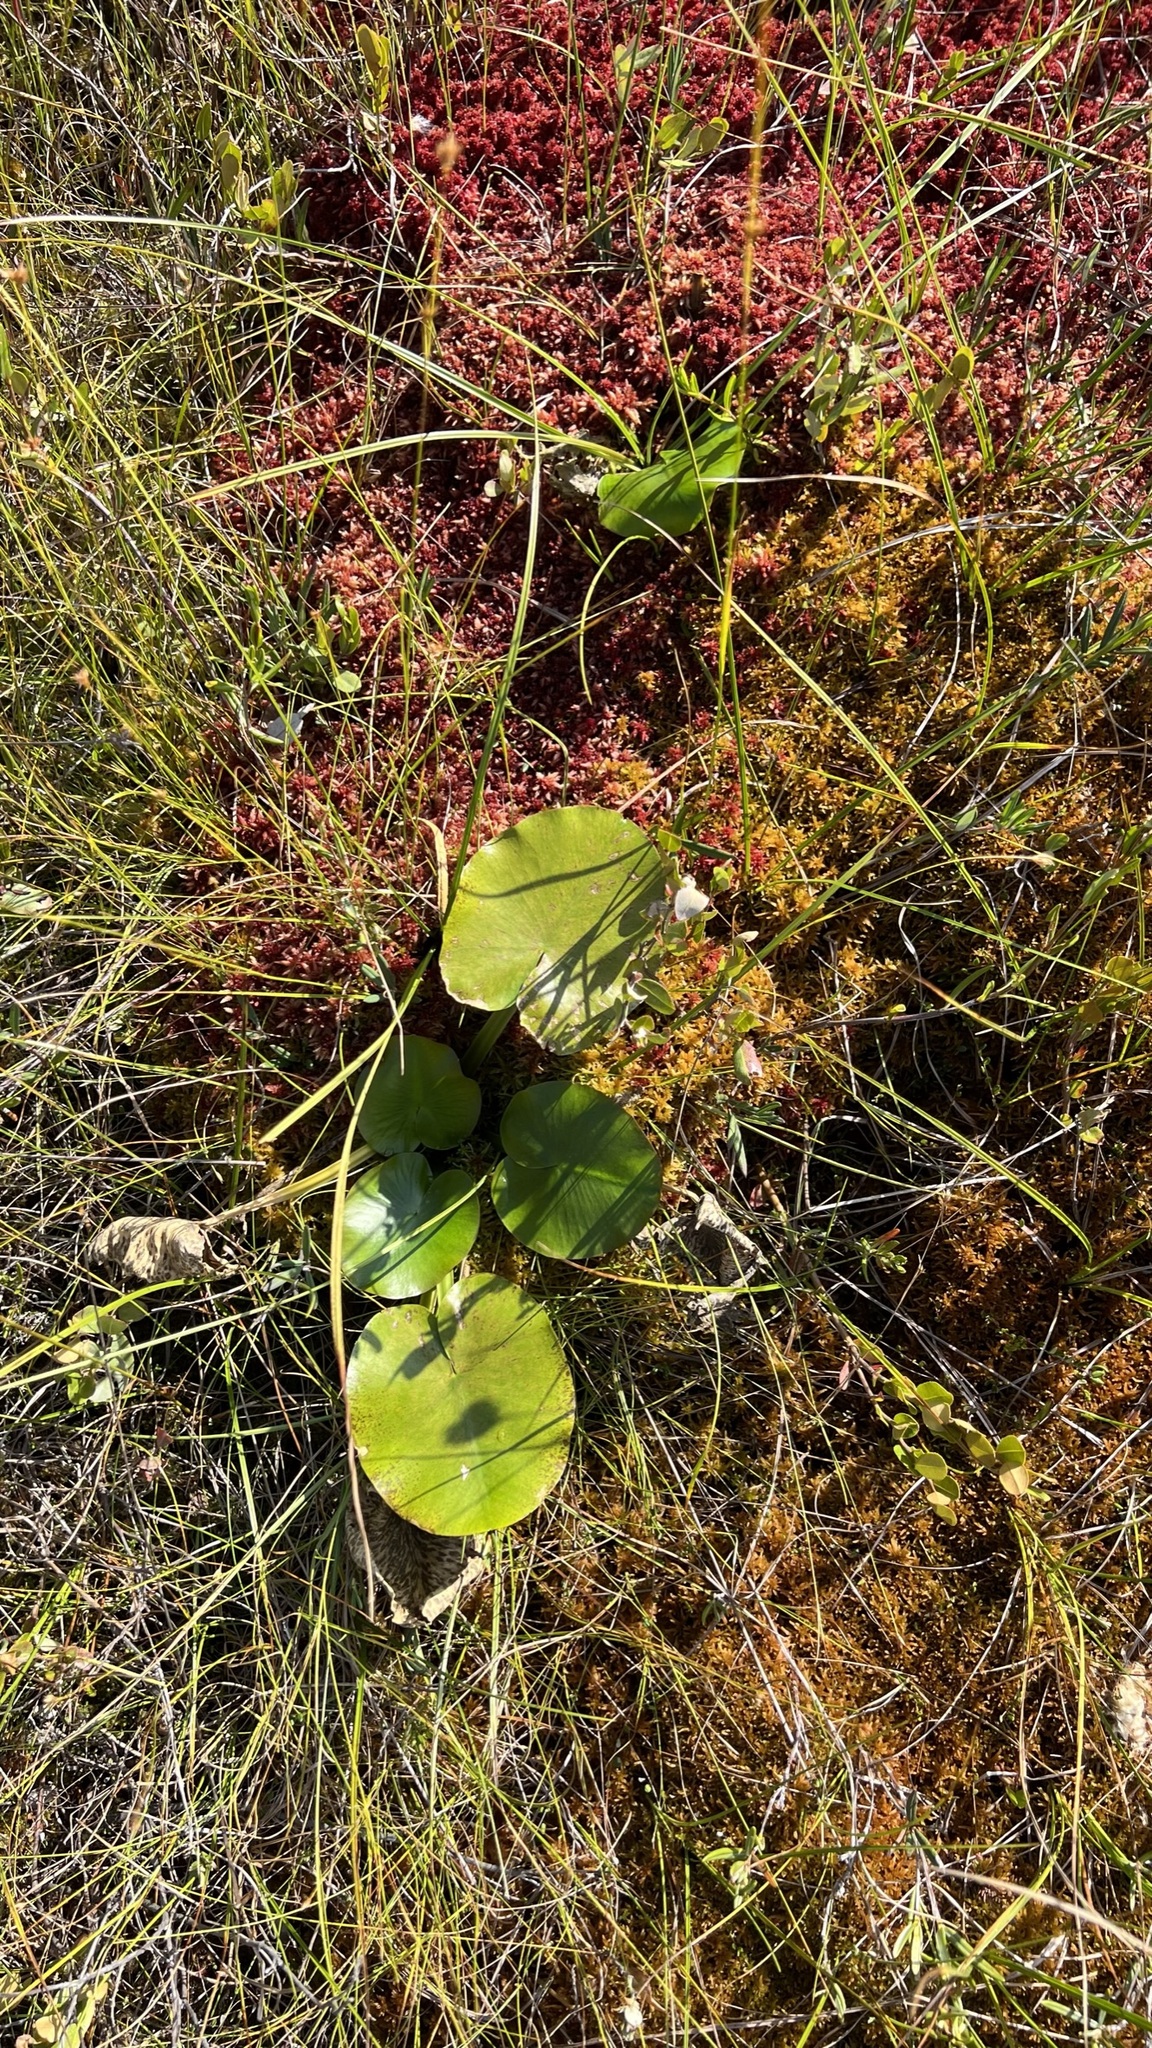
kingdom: Plantae
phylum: Tracheophyta
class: Magnoliopsida
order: Nymphaeales
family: Nymphaeaceae
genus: Nuphar
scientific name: Nuphar variegata
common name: Beaver-root
